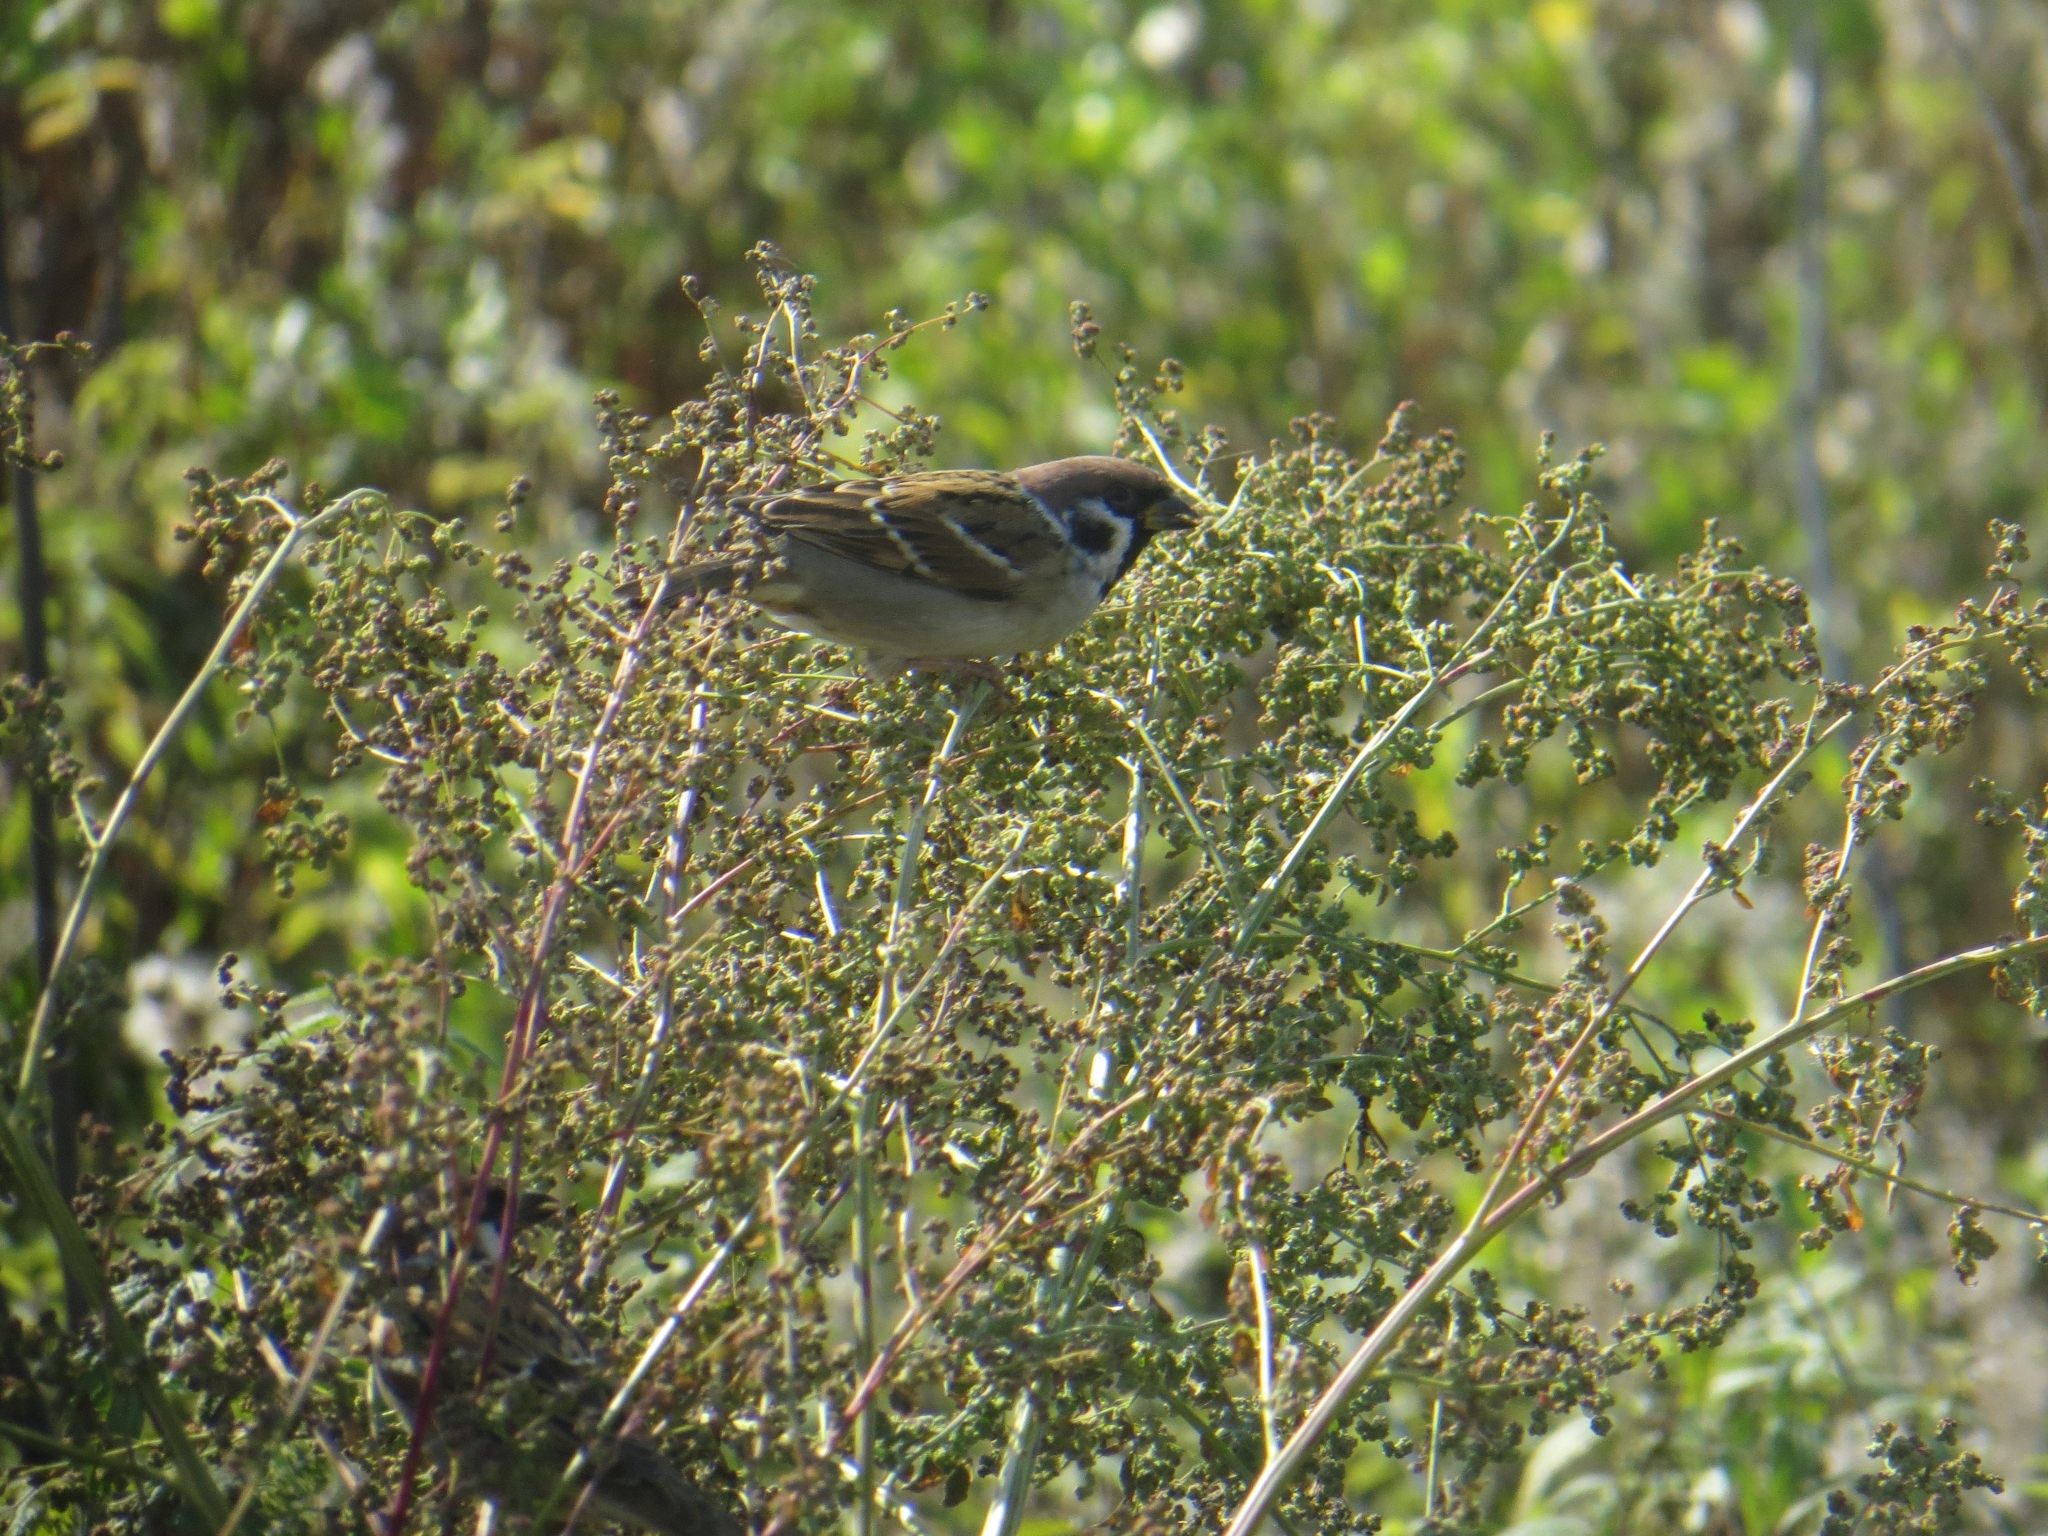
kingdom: Animalia
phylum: Chordata
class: Aves
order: Passeriformes
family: Passeridae
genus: Passer
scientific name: Passer montanus
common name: Eurasian tree sparrow
